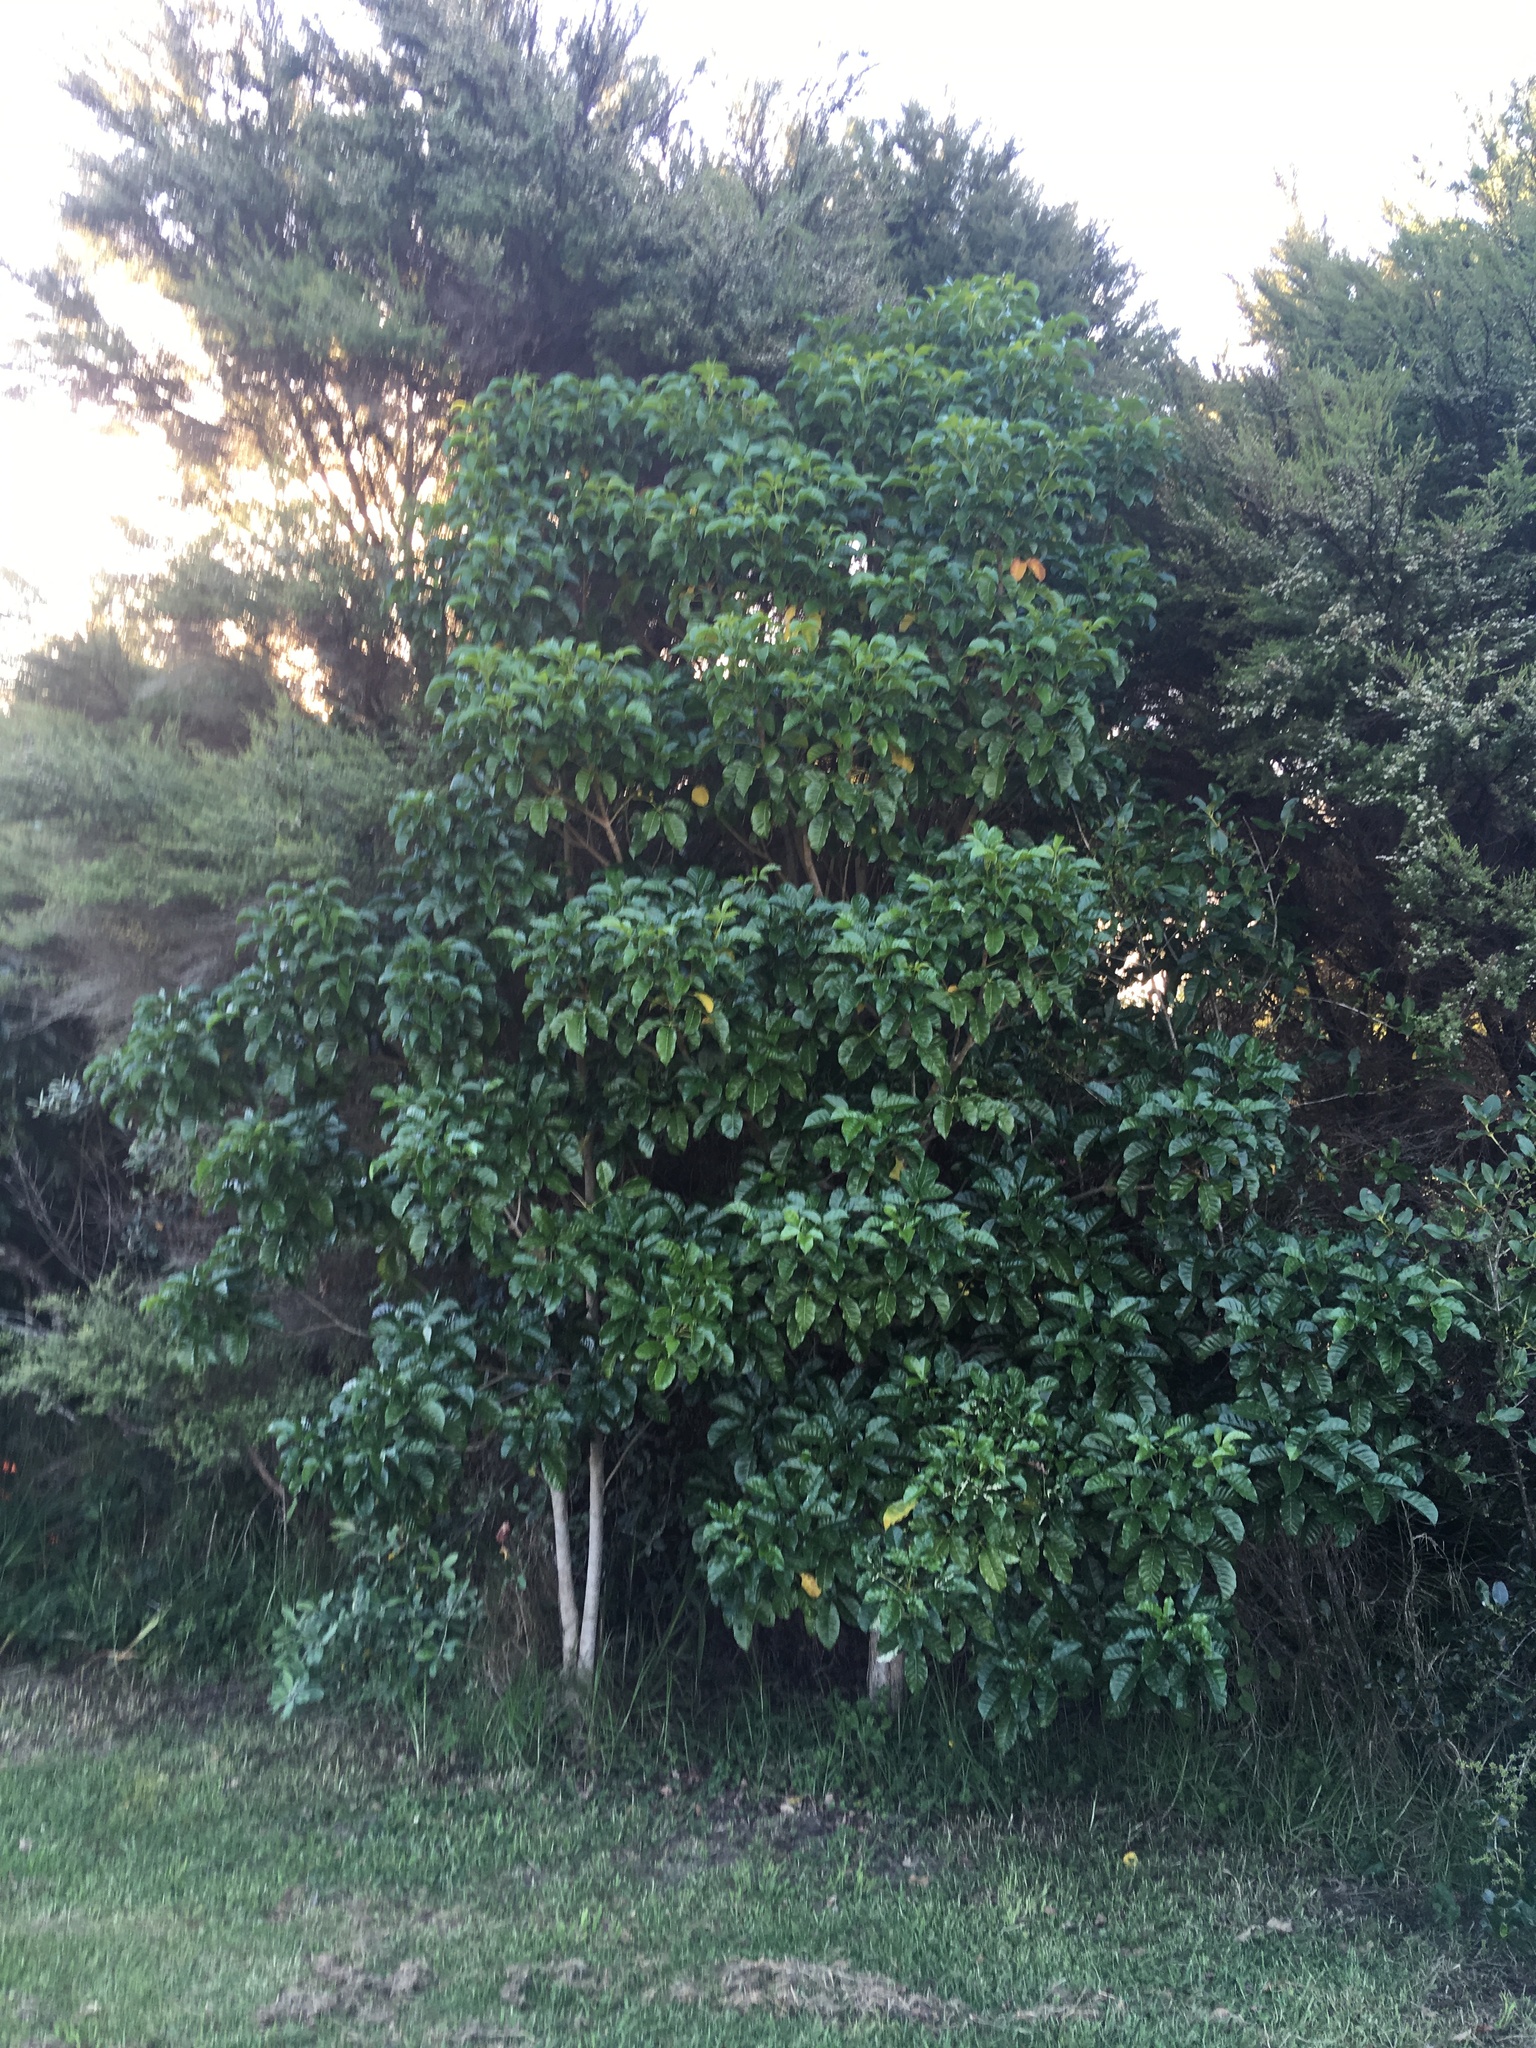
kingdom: Plantae
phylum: Tracheophyta
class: Magnoliopsida
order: Lamiales
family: Lamiaceae
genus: Vitex
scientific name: Vitex lucens
